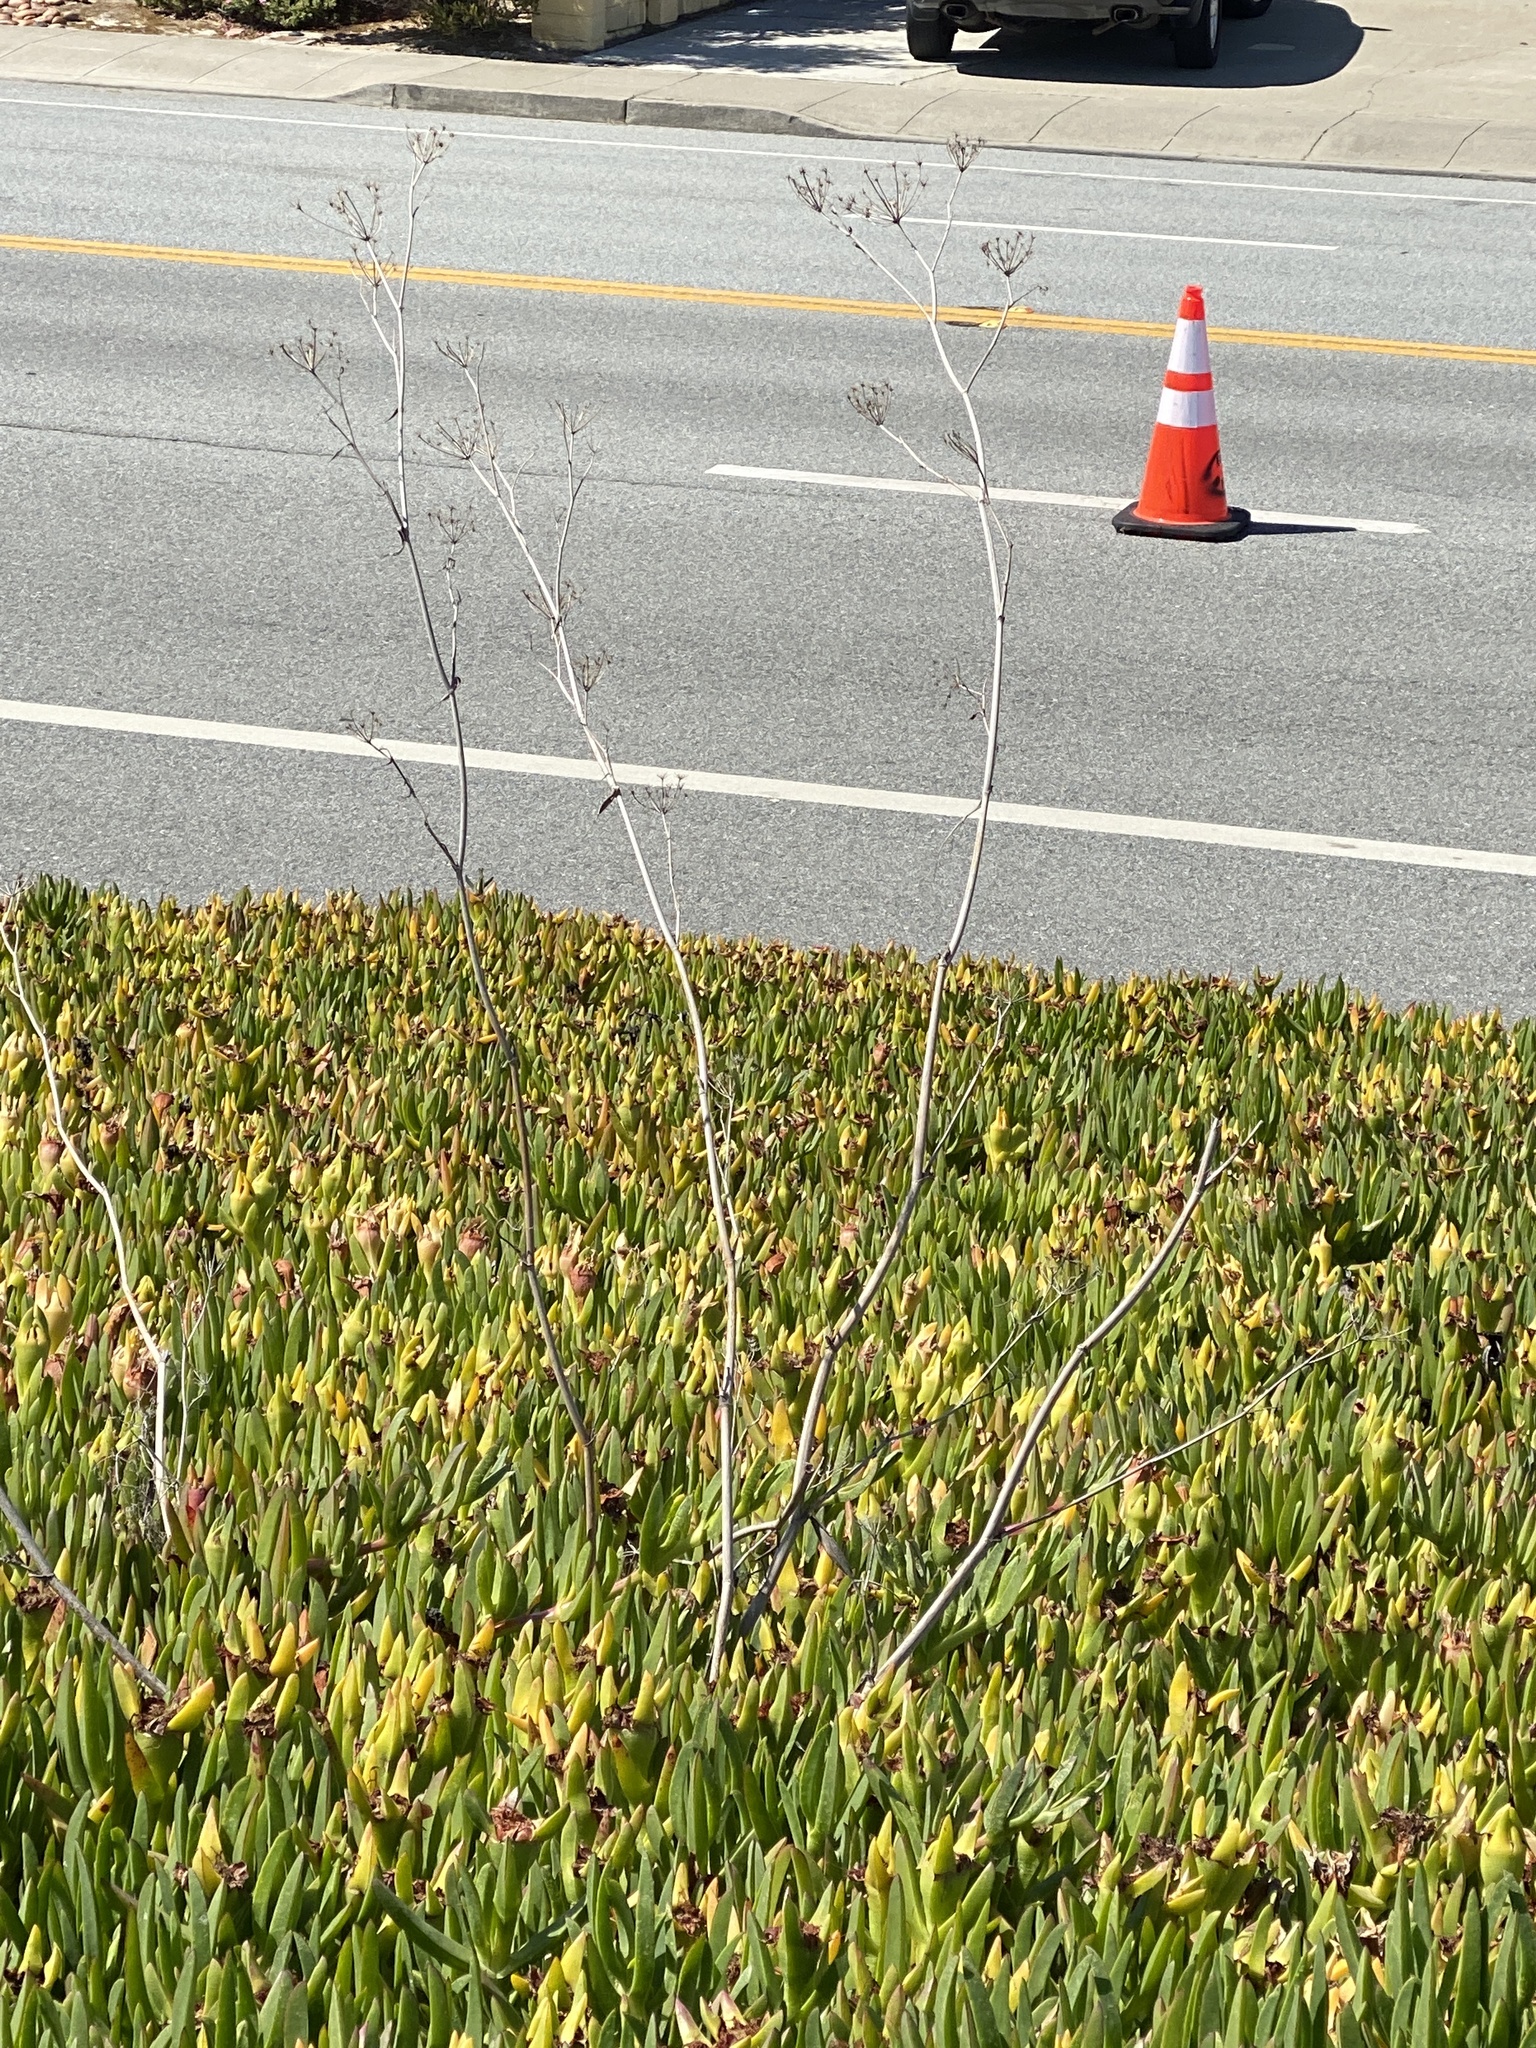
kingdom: Plantae
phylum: Tracheophyta
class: Magnoliopsida
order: Apiales
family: Apiaceae
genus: Foeniculum
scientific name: Foeniculum vulgare
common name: Fennel
